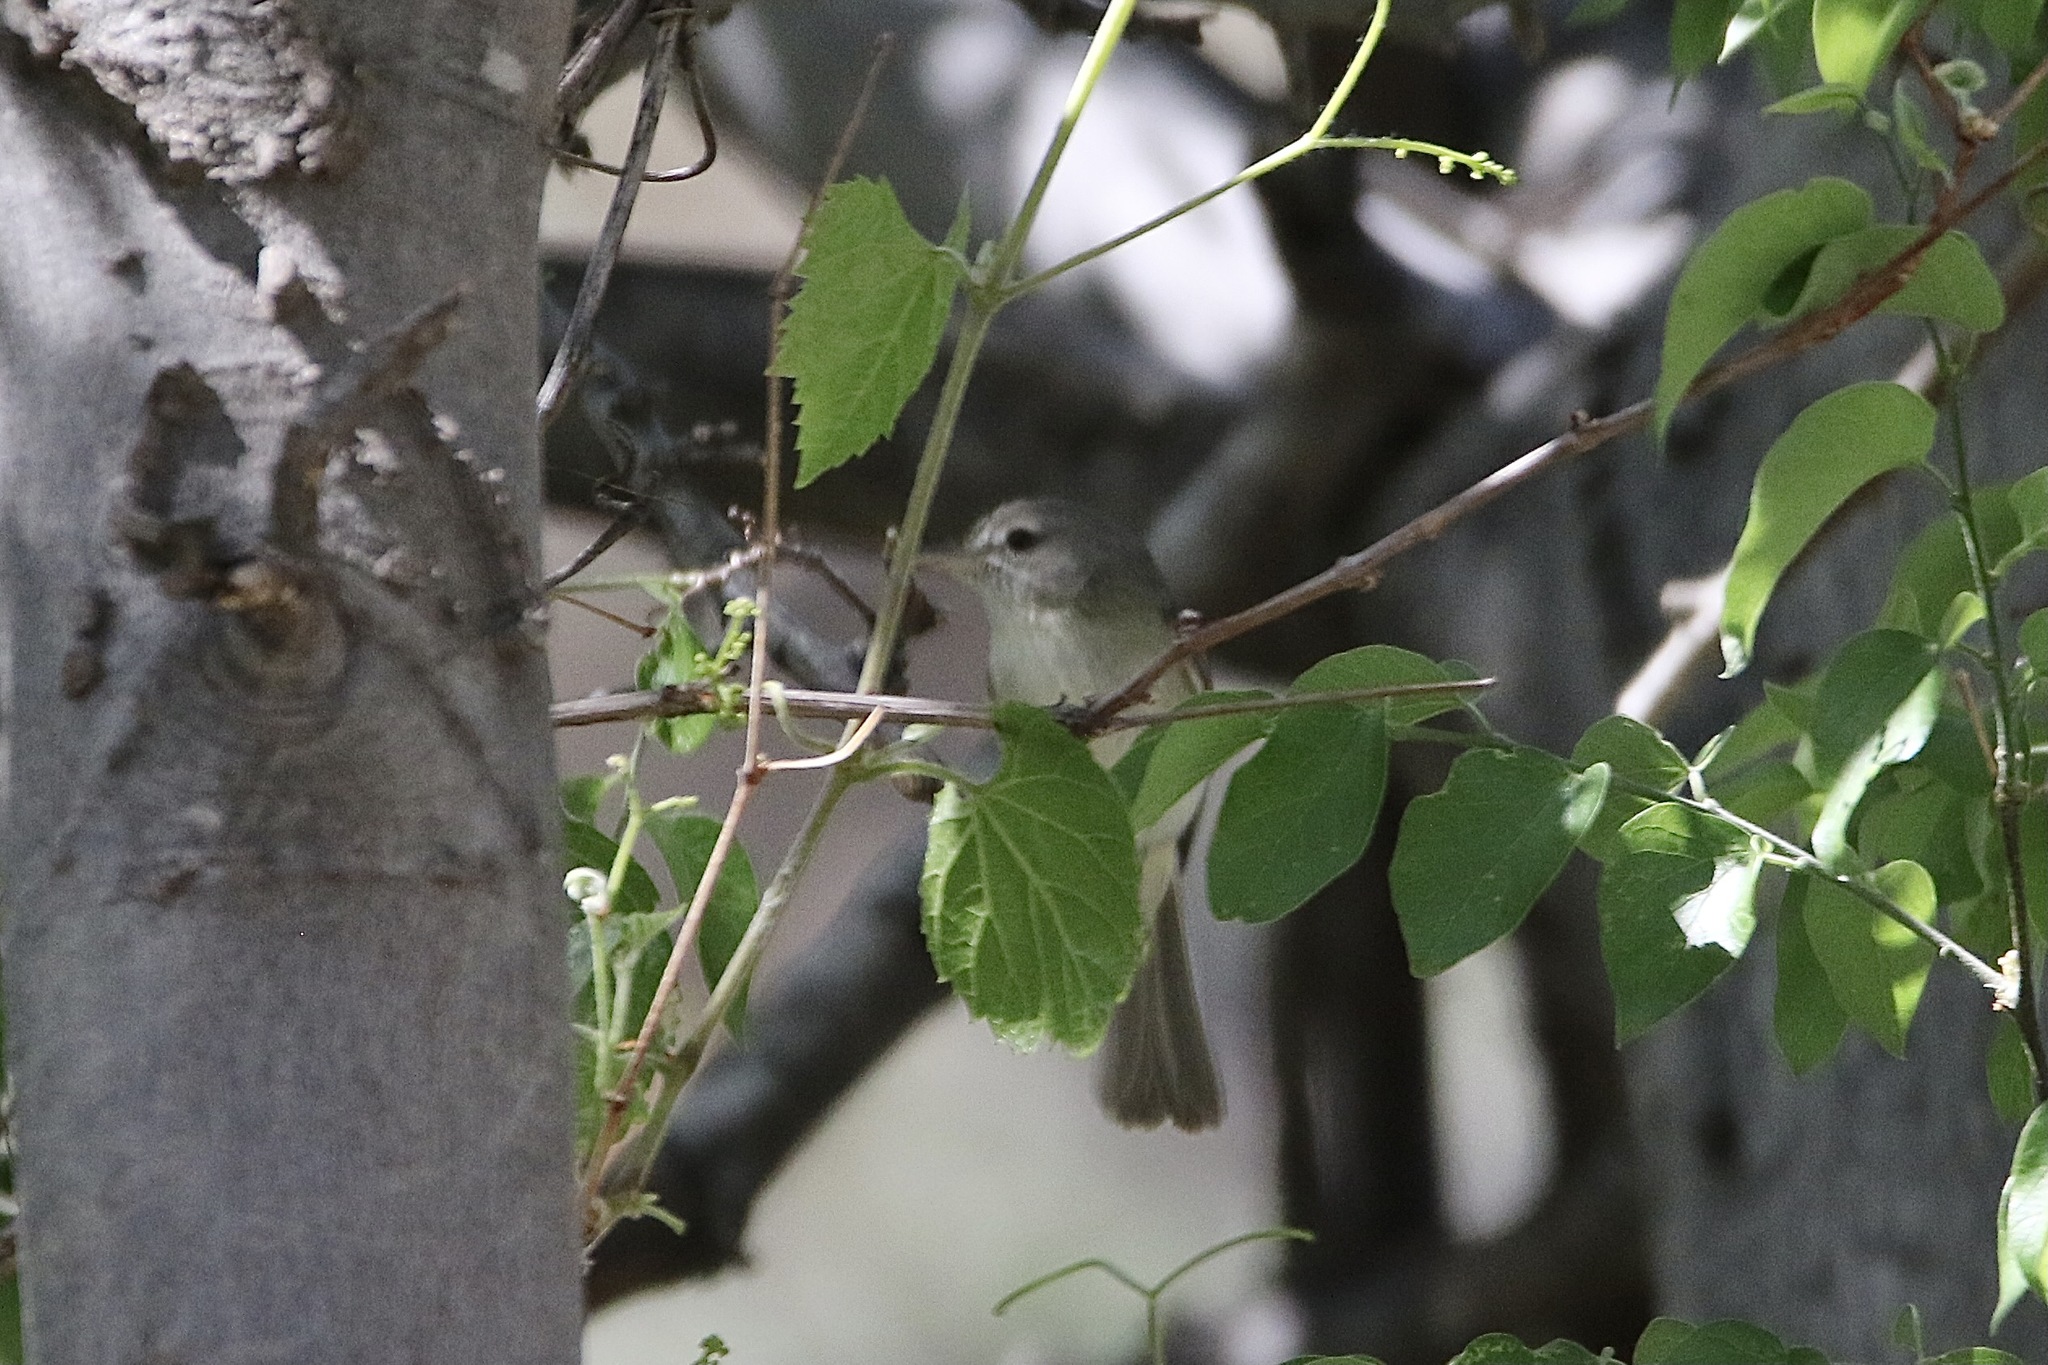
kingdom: Animalia
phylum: Chordata
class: Aves
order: Passeriformes
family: Vireonidae
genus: Vireo
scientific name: Vireo bellii
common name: Bell's vireo
